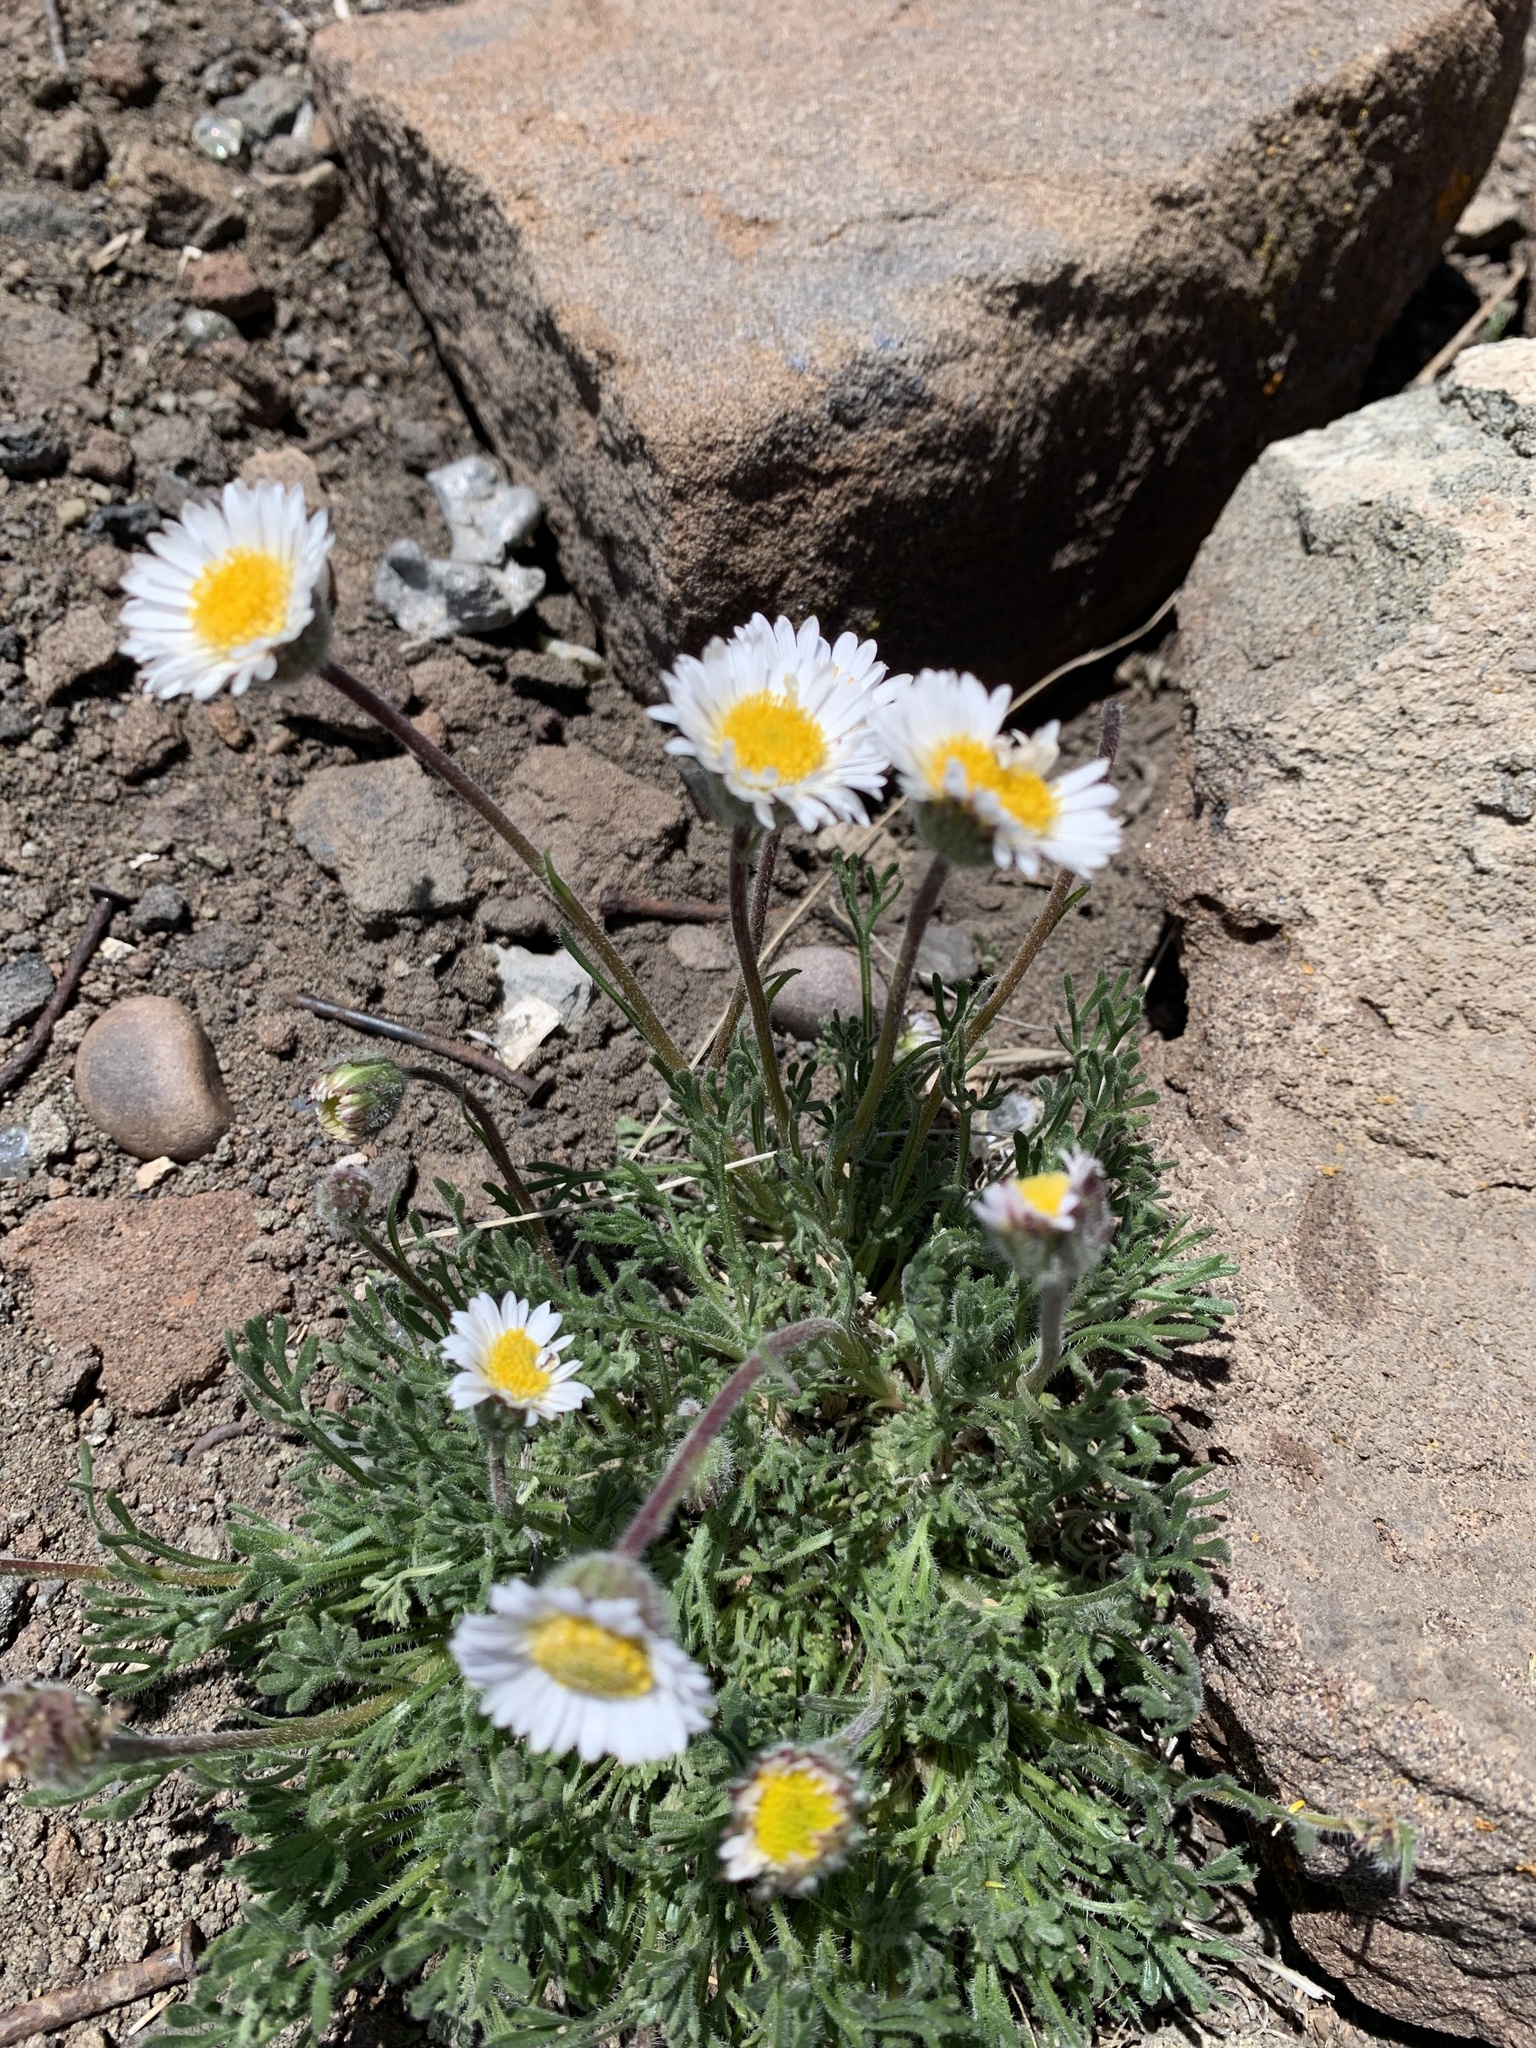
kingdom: Plantae
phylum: Tracheophyta
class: Magnoliopsida
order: Asterales
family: Asteraceae
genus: Erigeron
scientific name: Erigeron compositus
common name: Dwarf mountain fleabane
